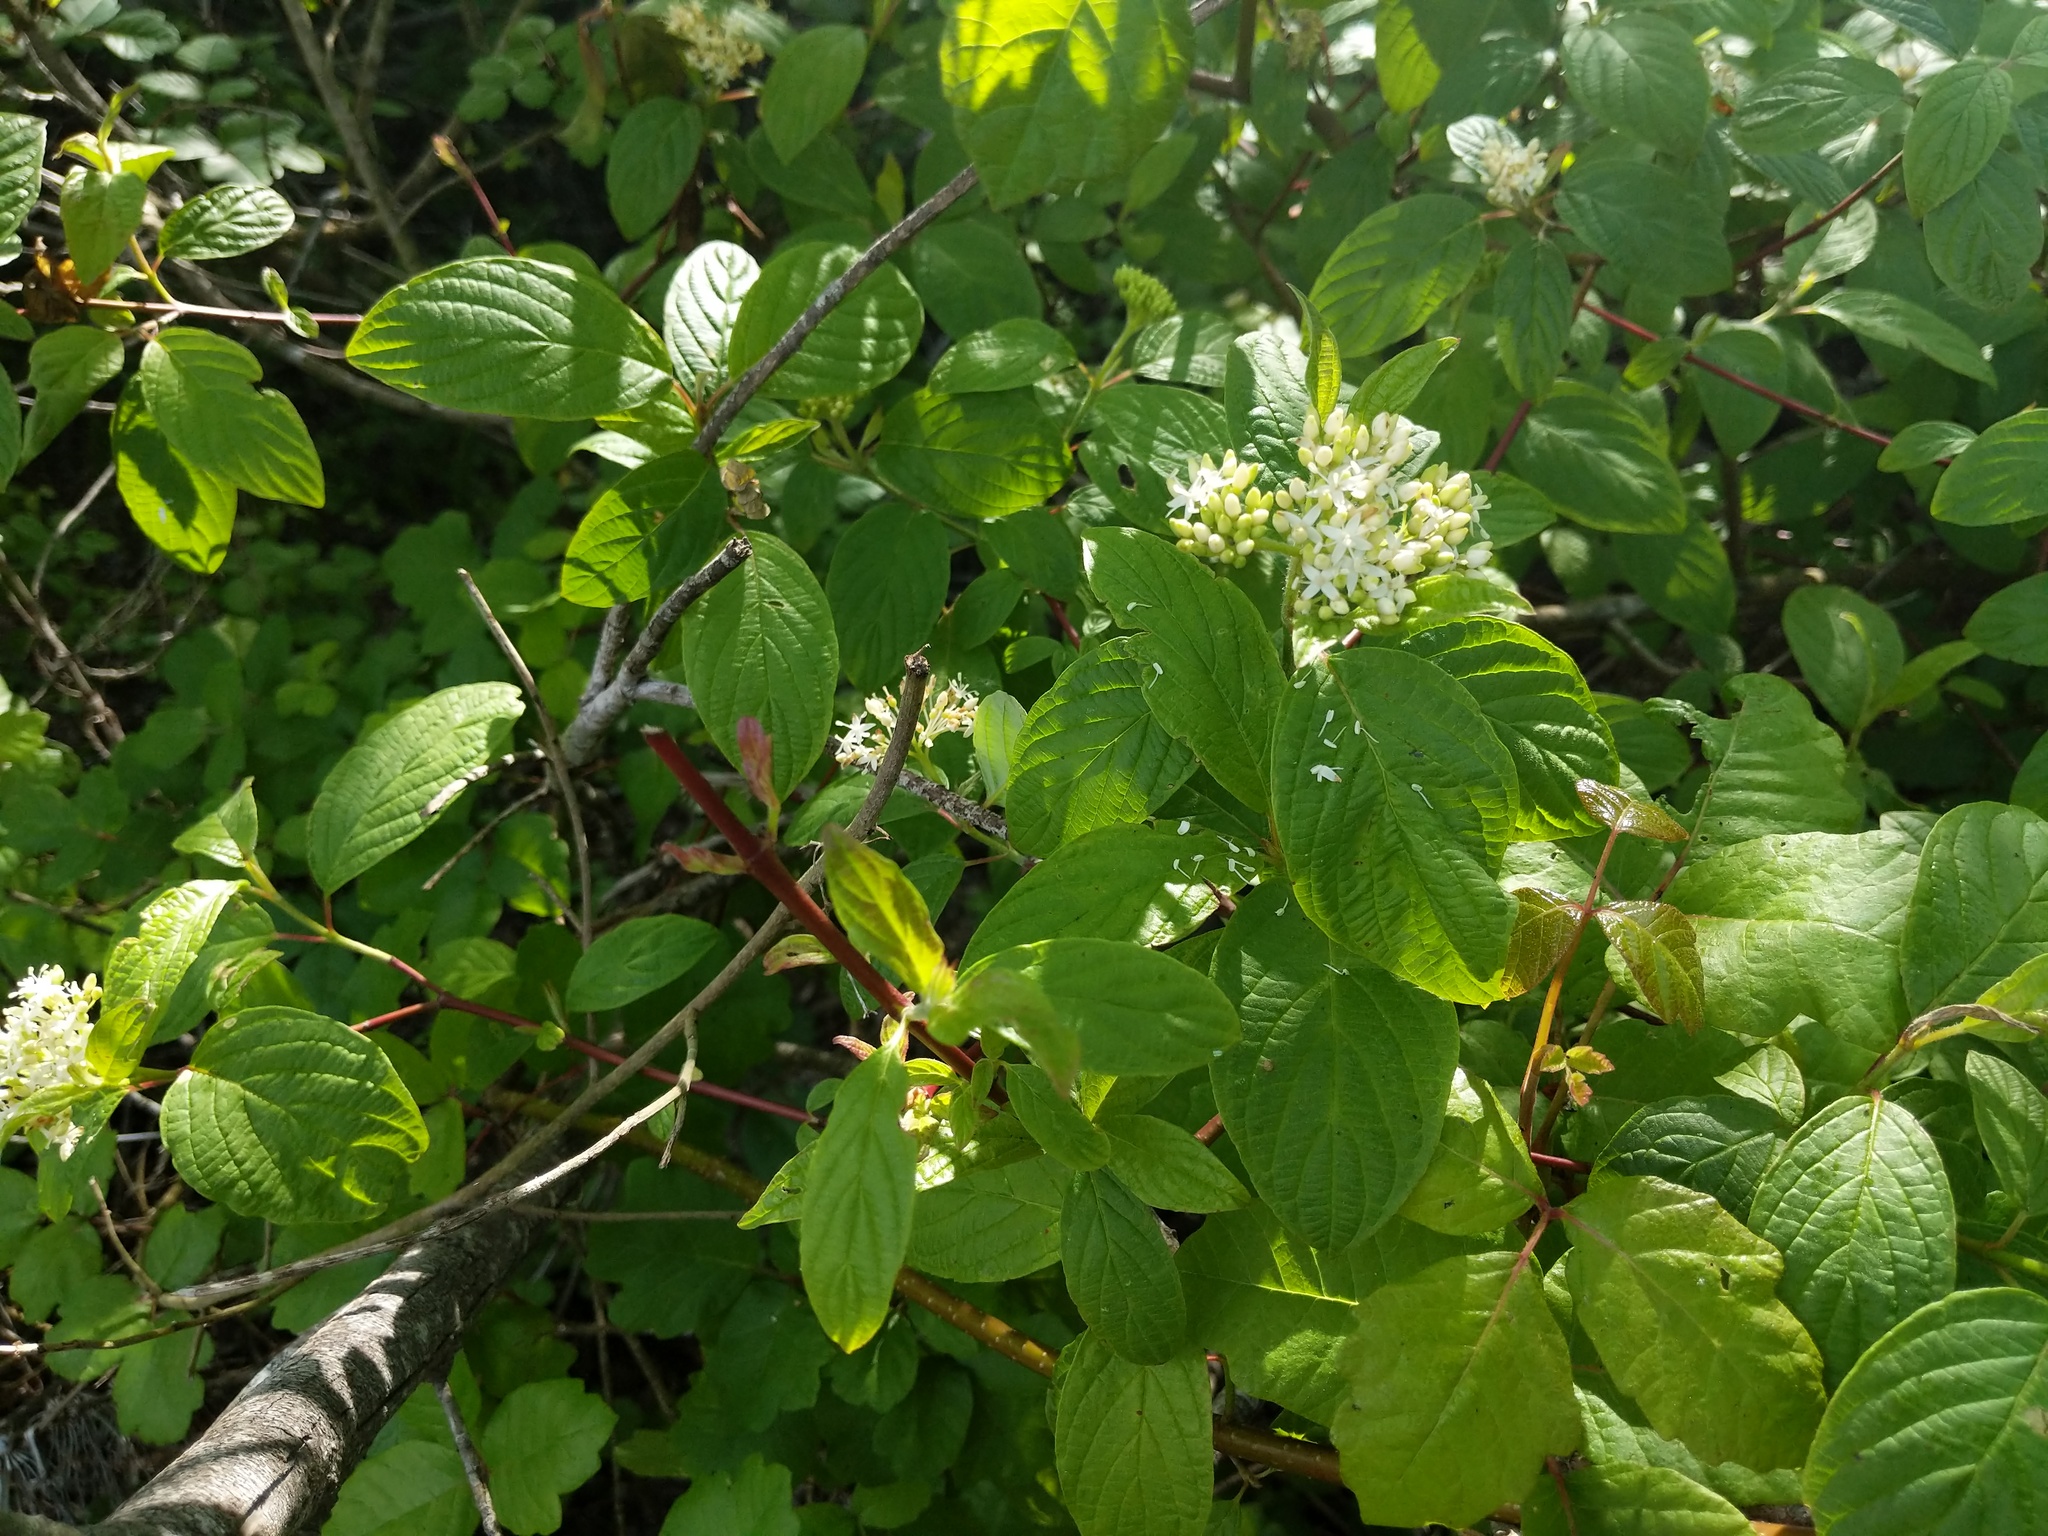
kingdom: Plantae
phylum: Tracheophyta
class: Magnoliopsida
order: Cornales
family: Cornaceae
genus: Cornus
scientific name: Cornus sericea
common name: Red-osier dogwood
